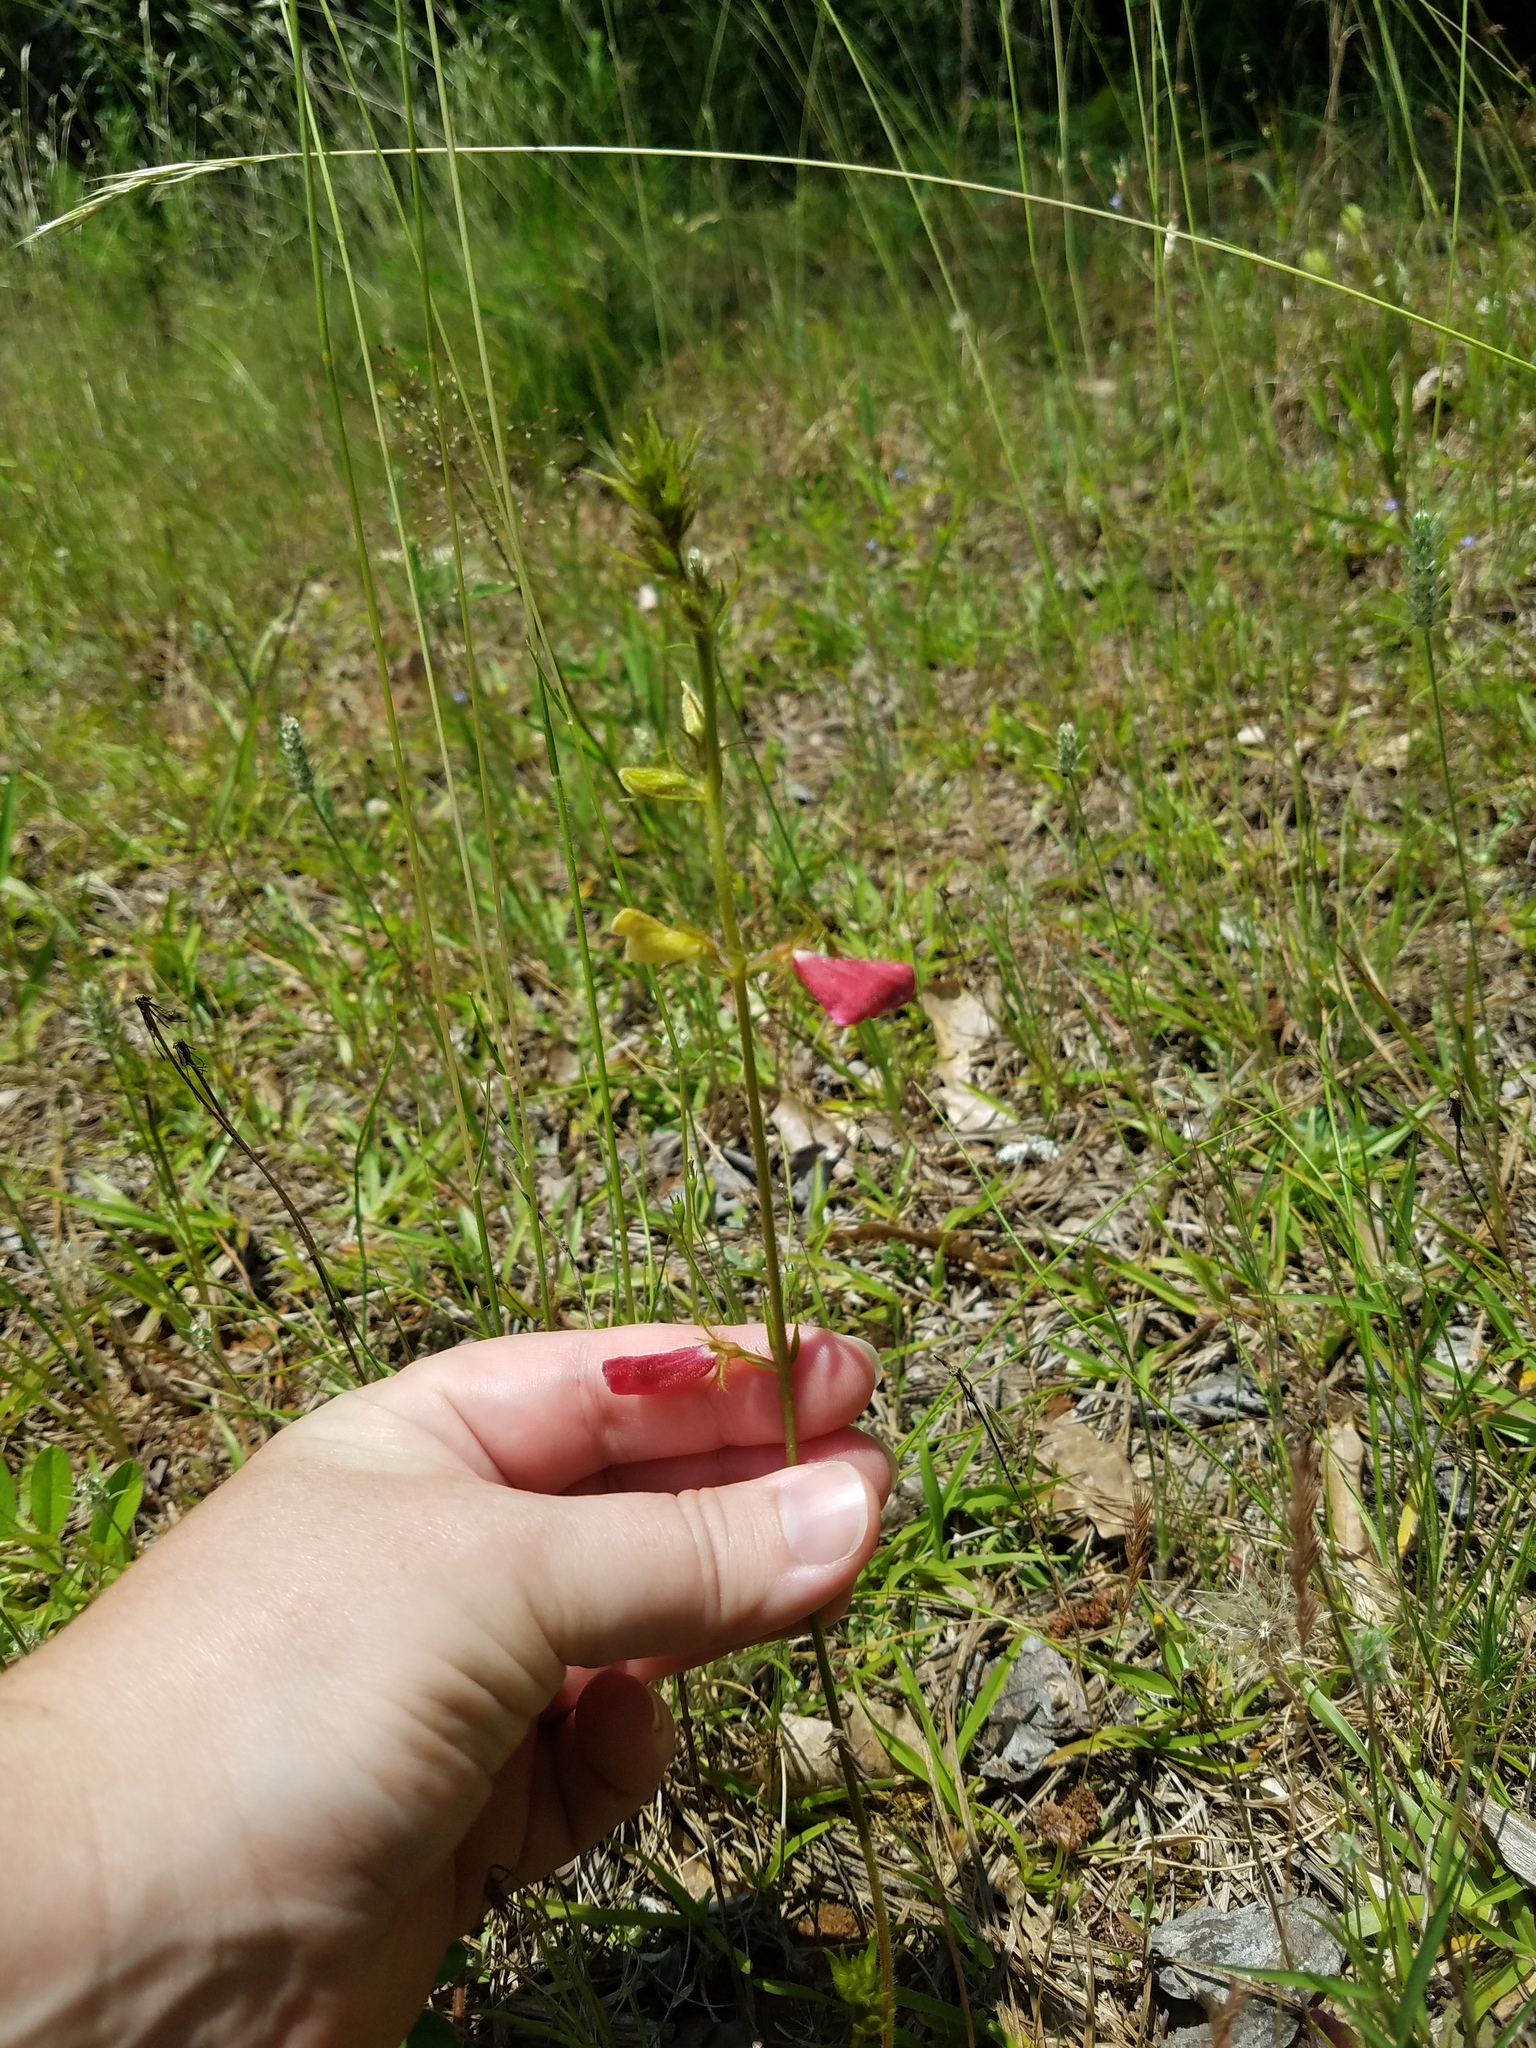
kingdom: Plantae
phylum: Tracheophyta
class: Magnoliopsida
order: Fabales
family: Fabaceae
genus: Tephrosia
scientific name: Tephrosia spicata
